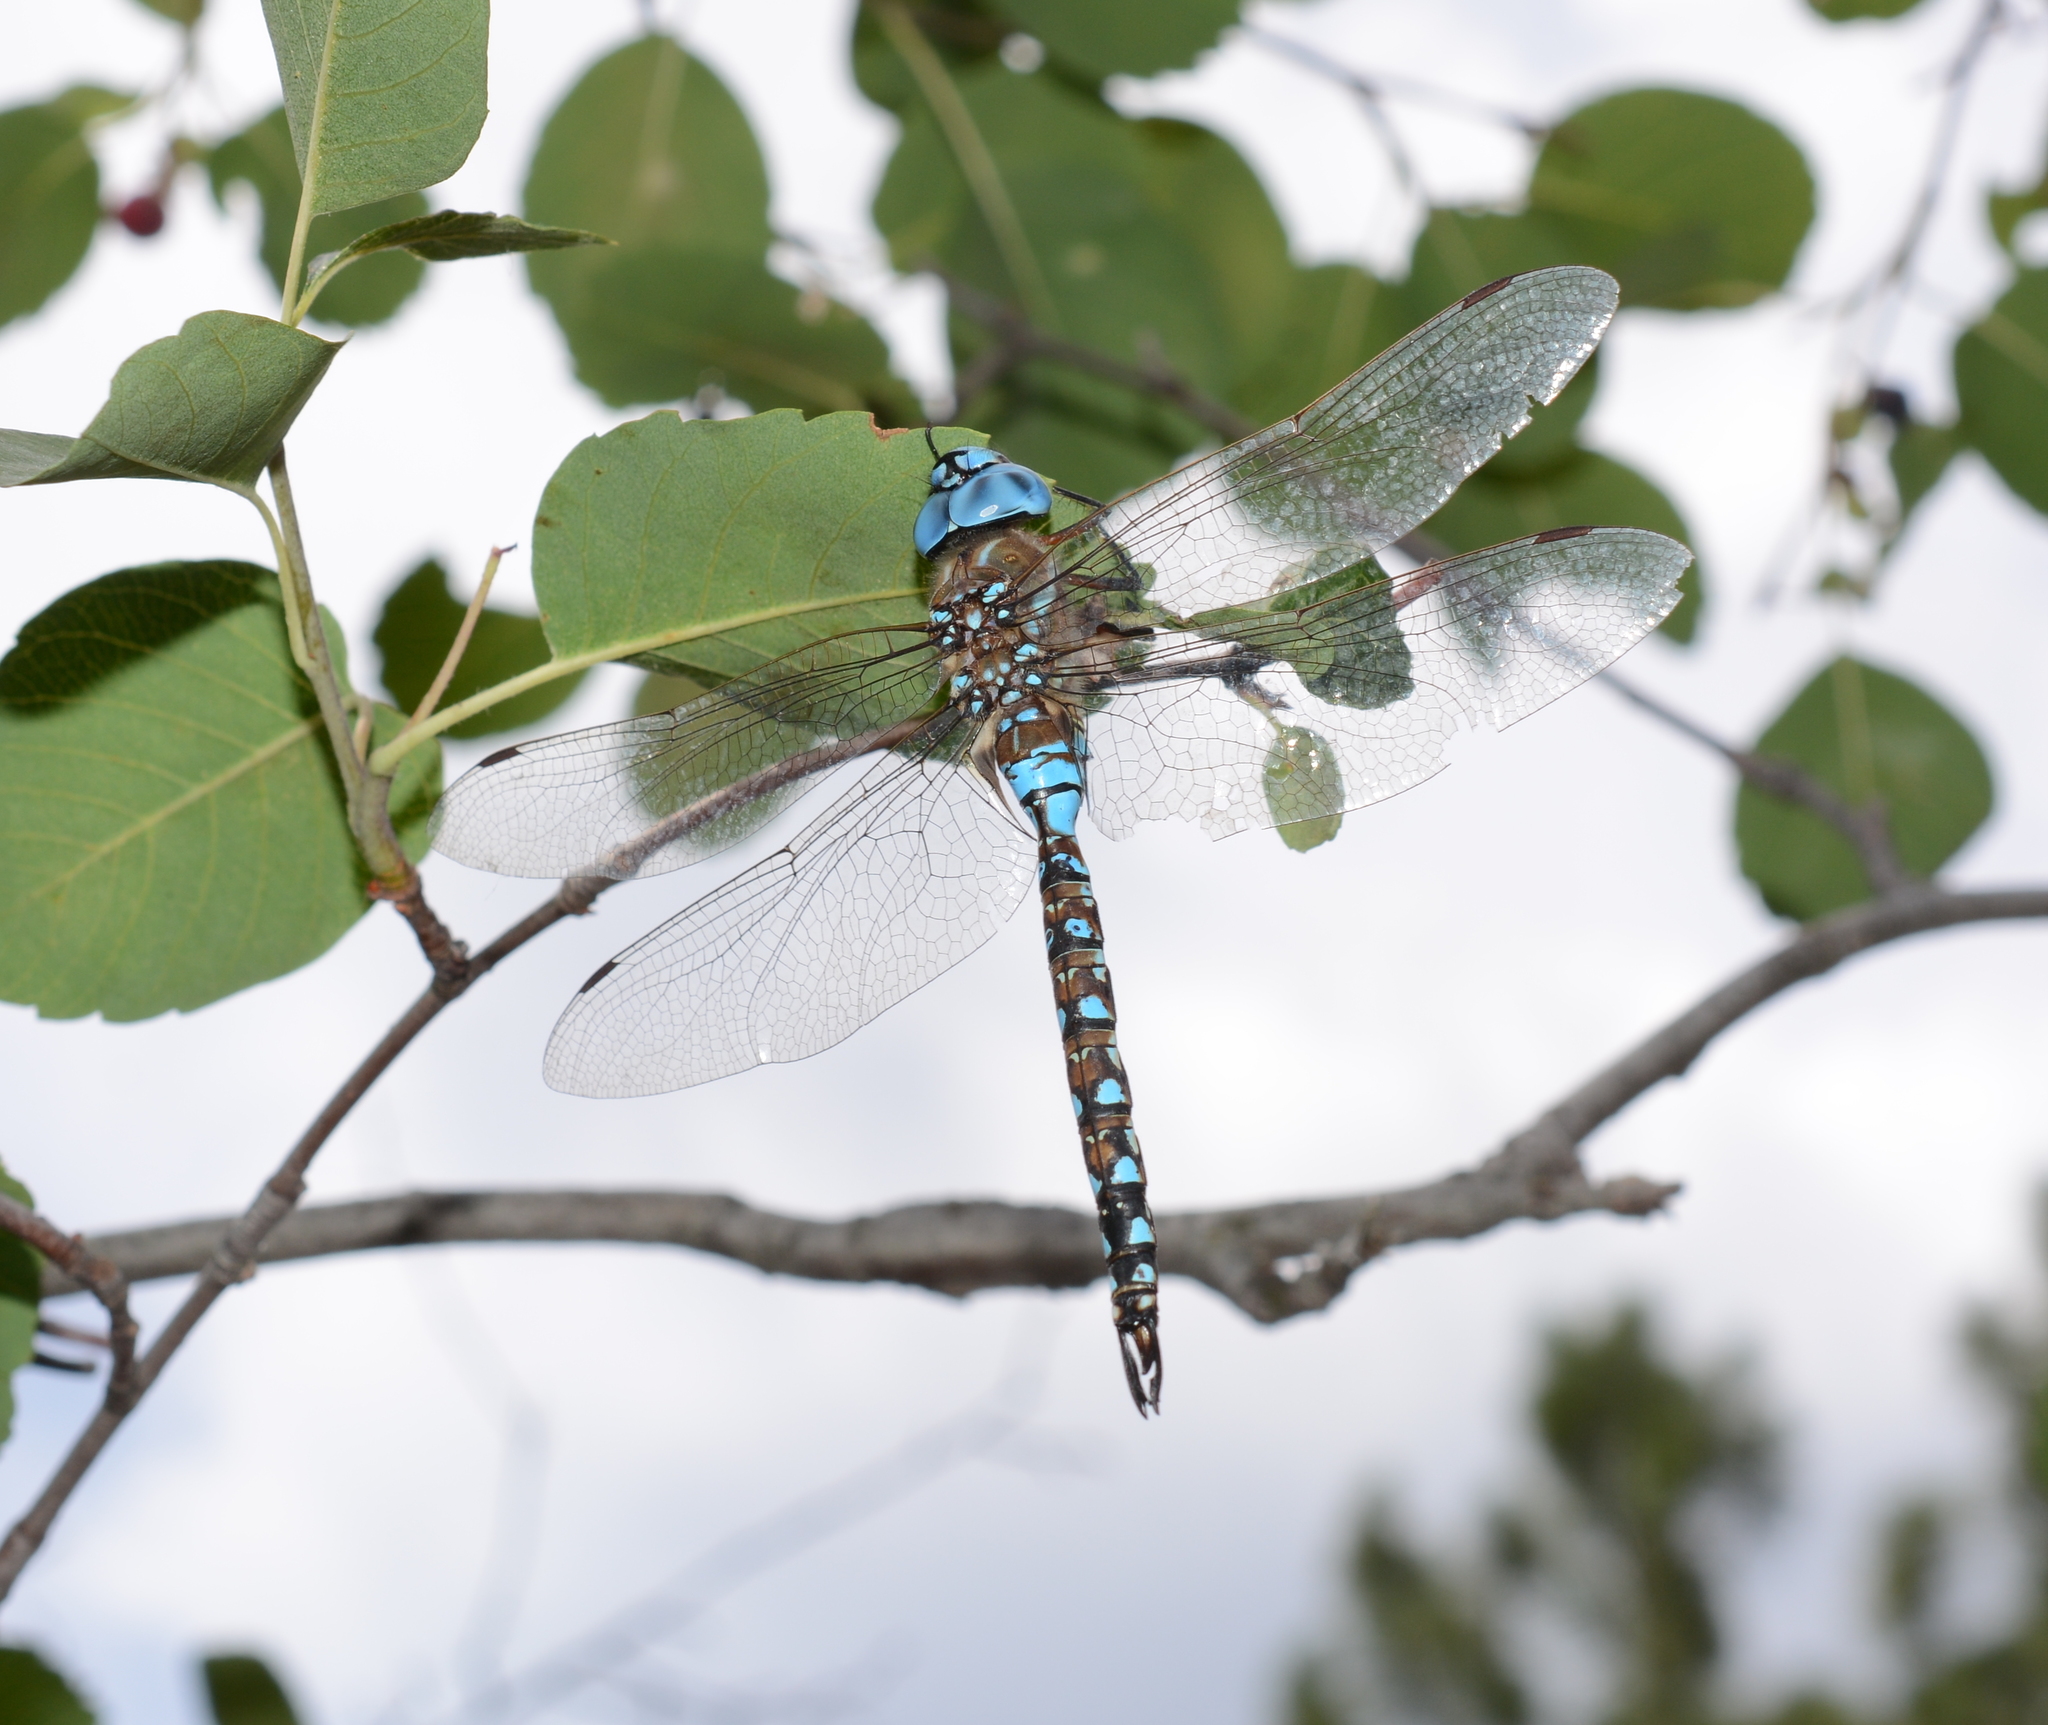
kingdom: Animalia
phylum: Arthropoda
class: Insecta
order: Odonata
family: Aeshnidae
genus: Rhionaeschna
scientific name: Rhionaeschna multicolor
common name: Blue-eyed darner
